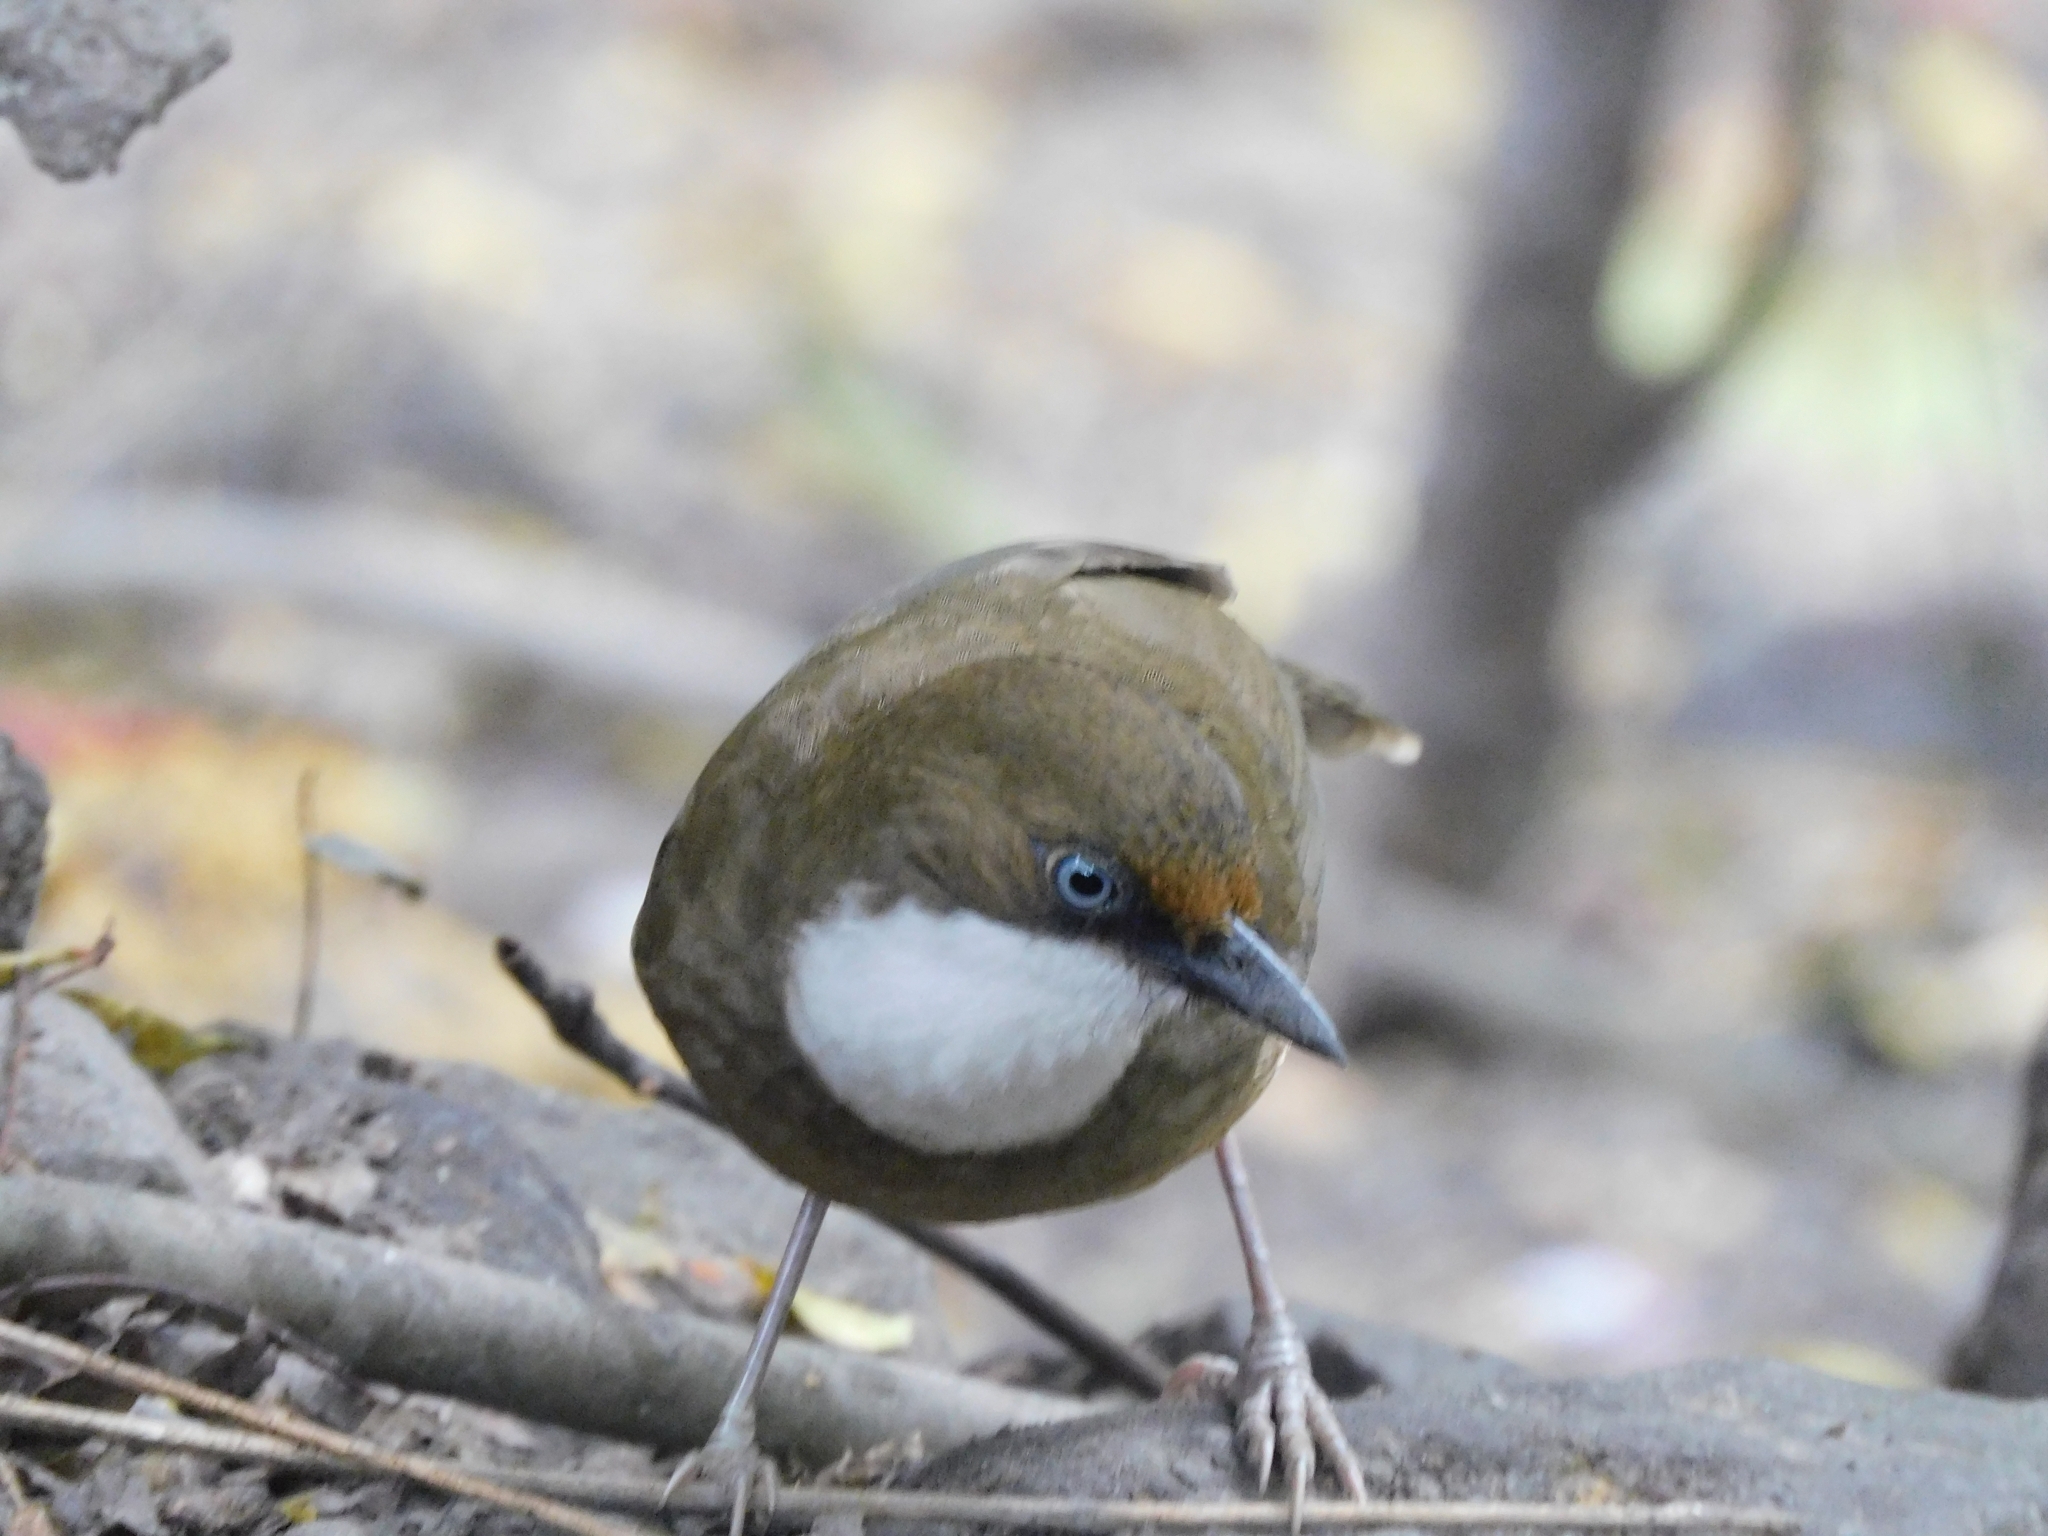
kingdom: Animalia
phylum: Chordata
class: Aves
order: Passeriformes
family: Leiothrichidae
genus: Garrulax
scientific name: Garrulax albogularis
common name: White-throated laughingthrush
